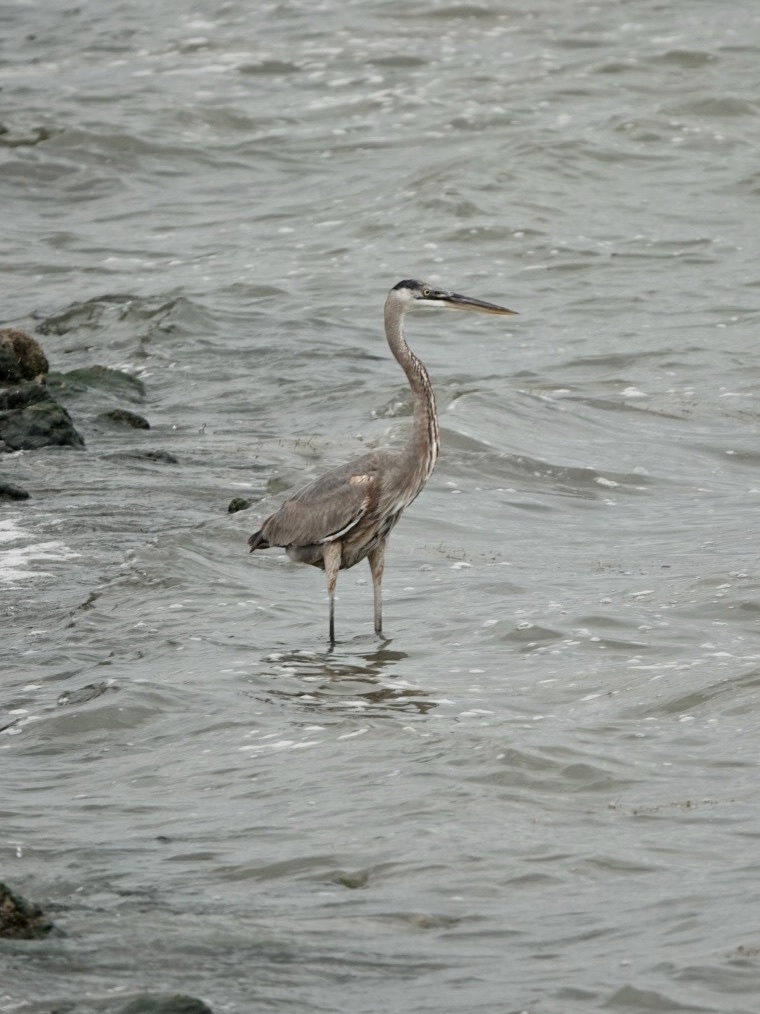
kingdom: Animalia
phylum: Chordata
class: Aves
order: Pelecaniformes
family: Ardeidae
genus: Ardea
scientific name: Ardea herodias
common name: Great blue heron
